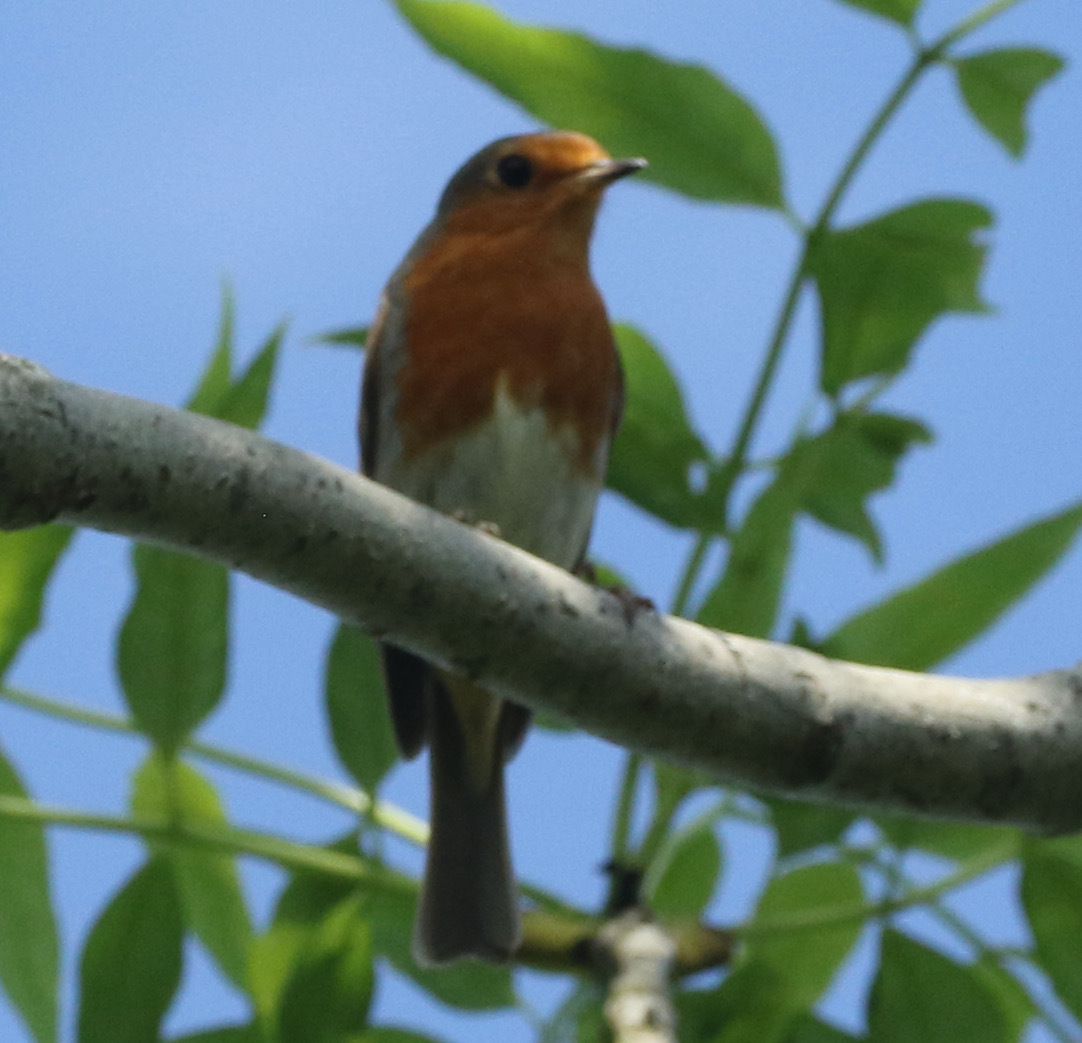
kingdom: Animalia
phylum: Chordata
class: Aves
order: Passeriformes
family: Muscicapidae
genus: Erithacus
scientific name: Erithacus rubecula
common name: European robin
